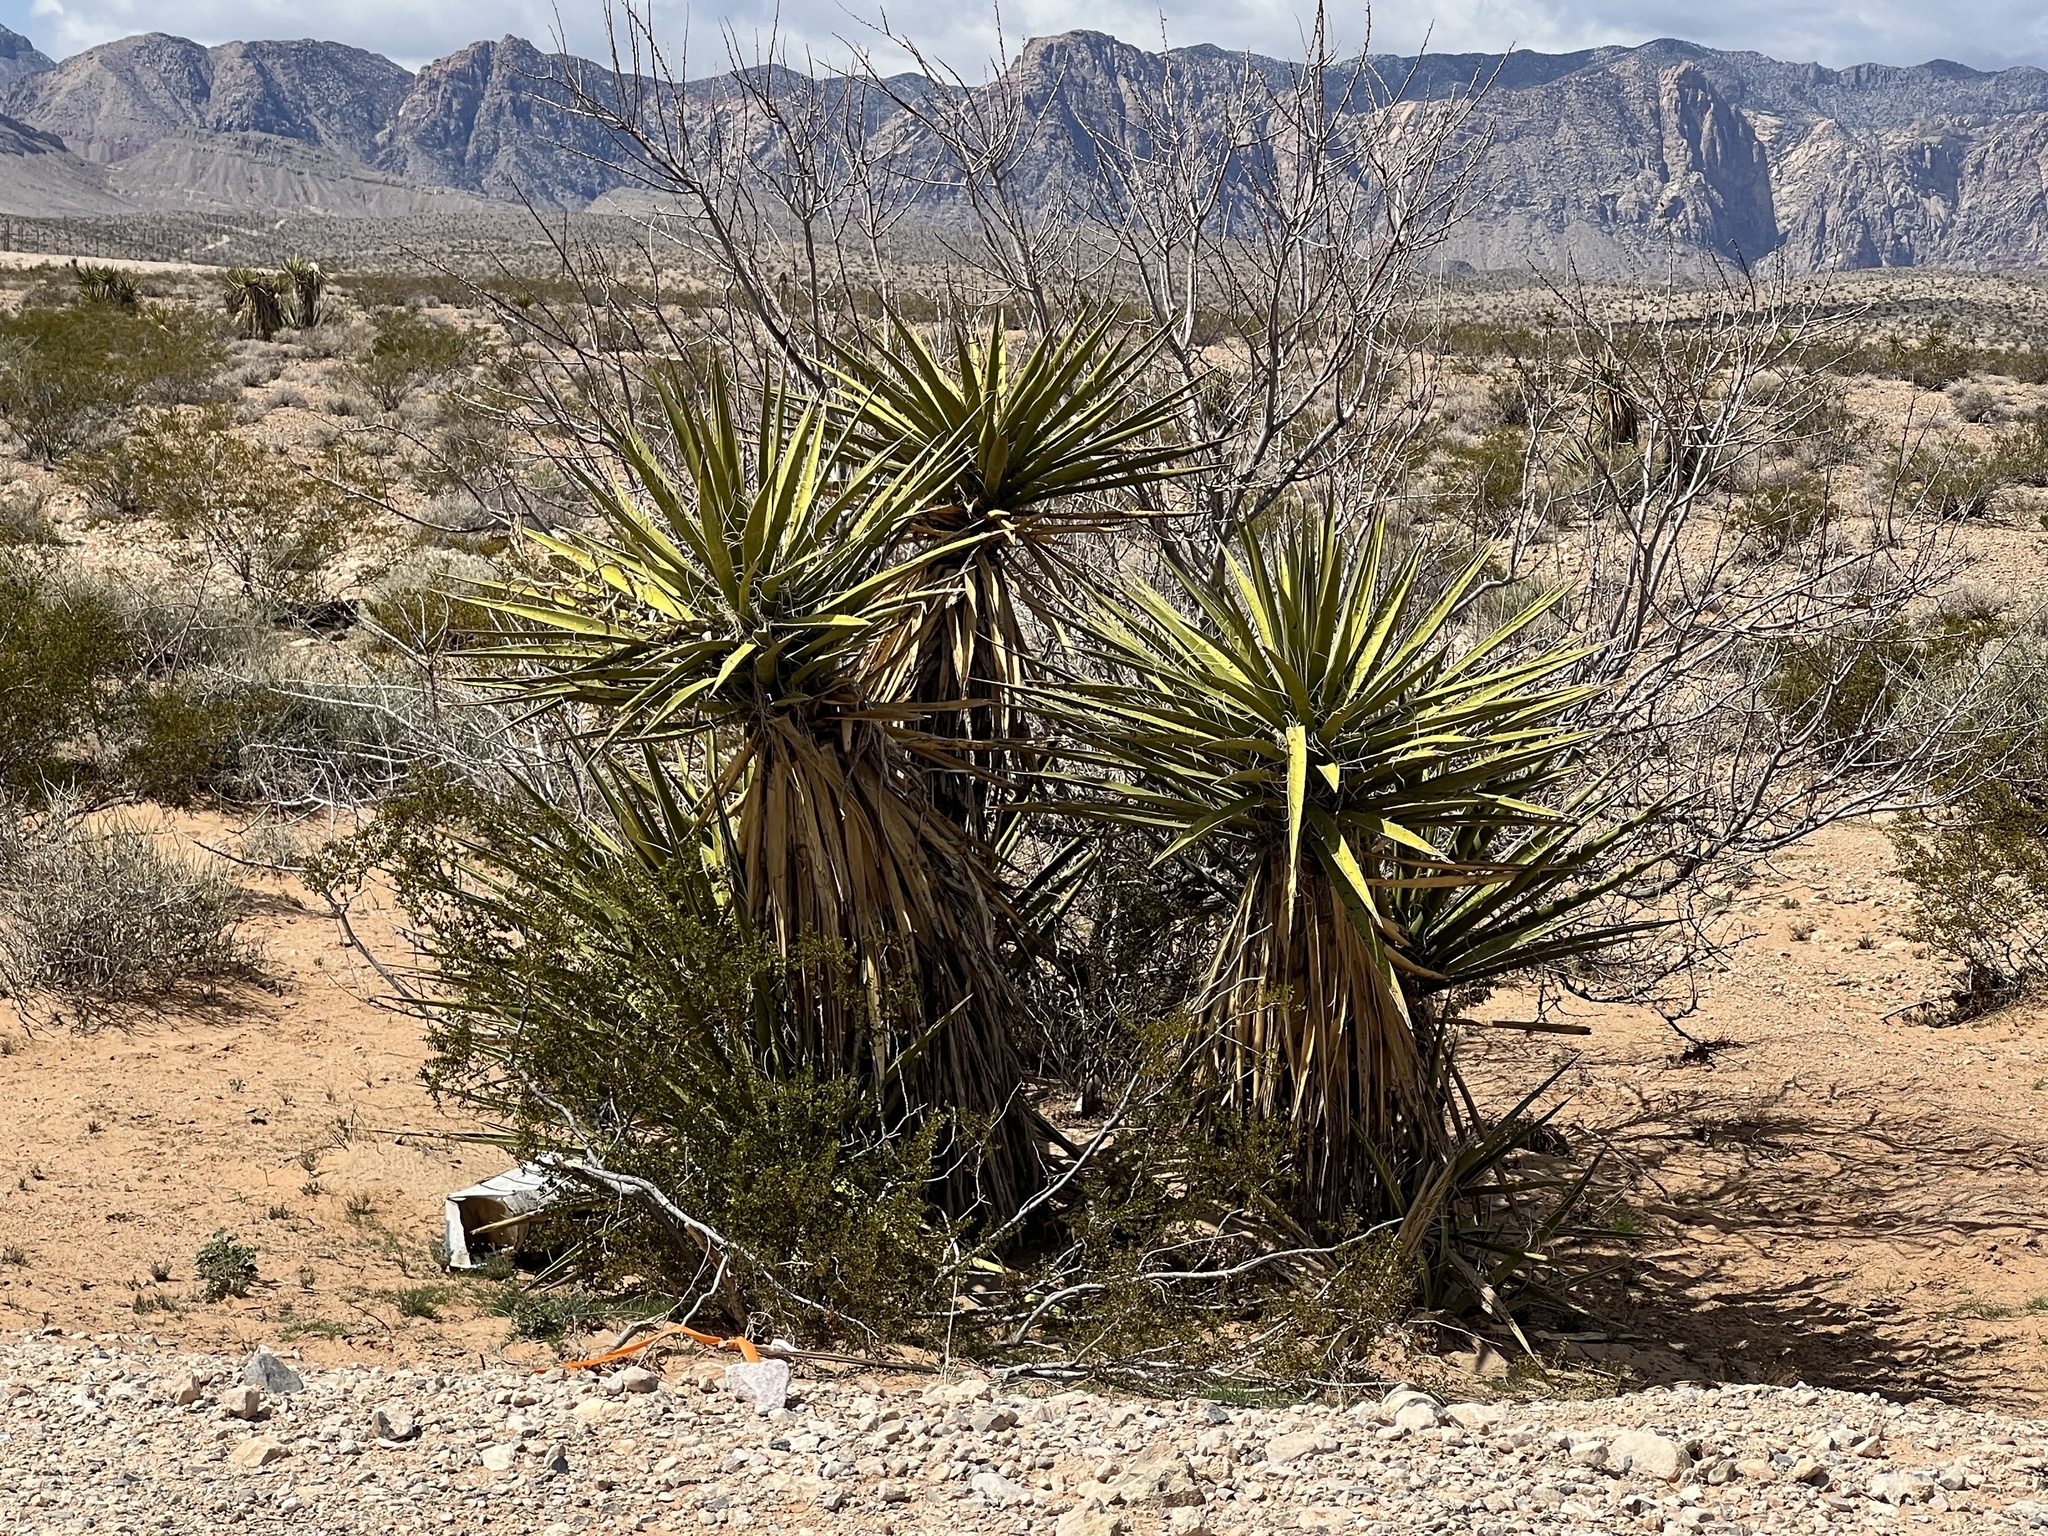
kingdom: Plantae
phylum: Tracheophyta
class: Liliopsida
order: Asparagales
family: Asparagaceae
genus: Yucca
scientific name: Yucca schidigera
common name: Mojave yucca
